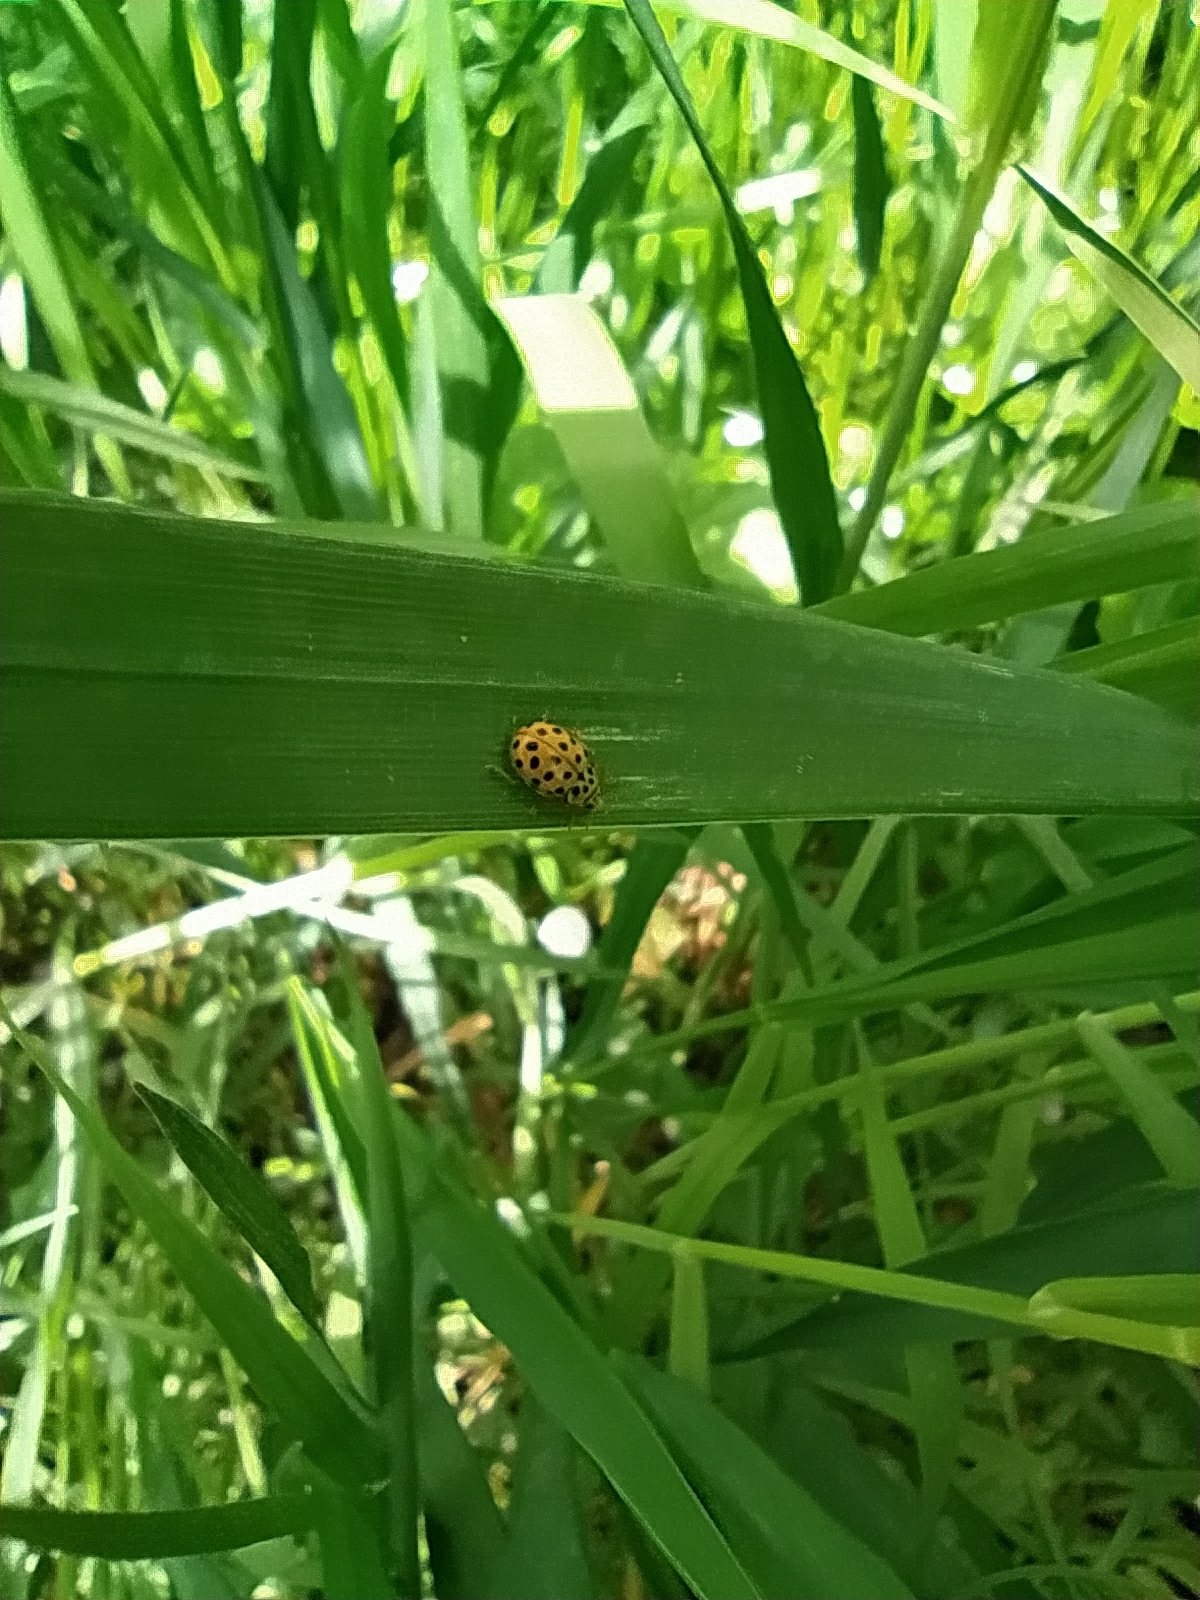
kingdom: Animalia
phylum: Arthropoda
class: Insecta
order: Coleoptera
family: Coccinellidae
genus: Psyllobora
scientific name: Psyllobora vigintiduopunctata
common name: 22-spot ladybird
